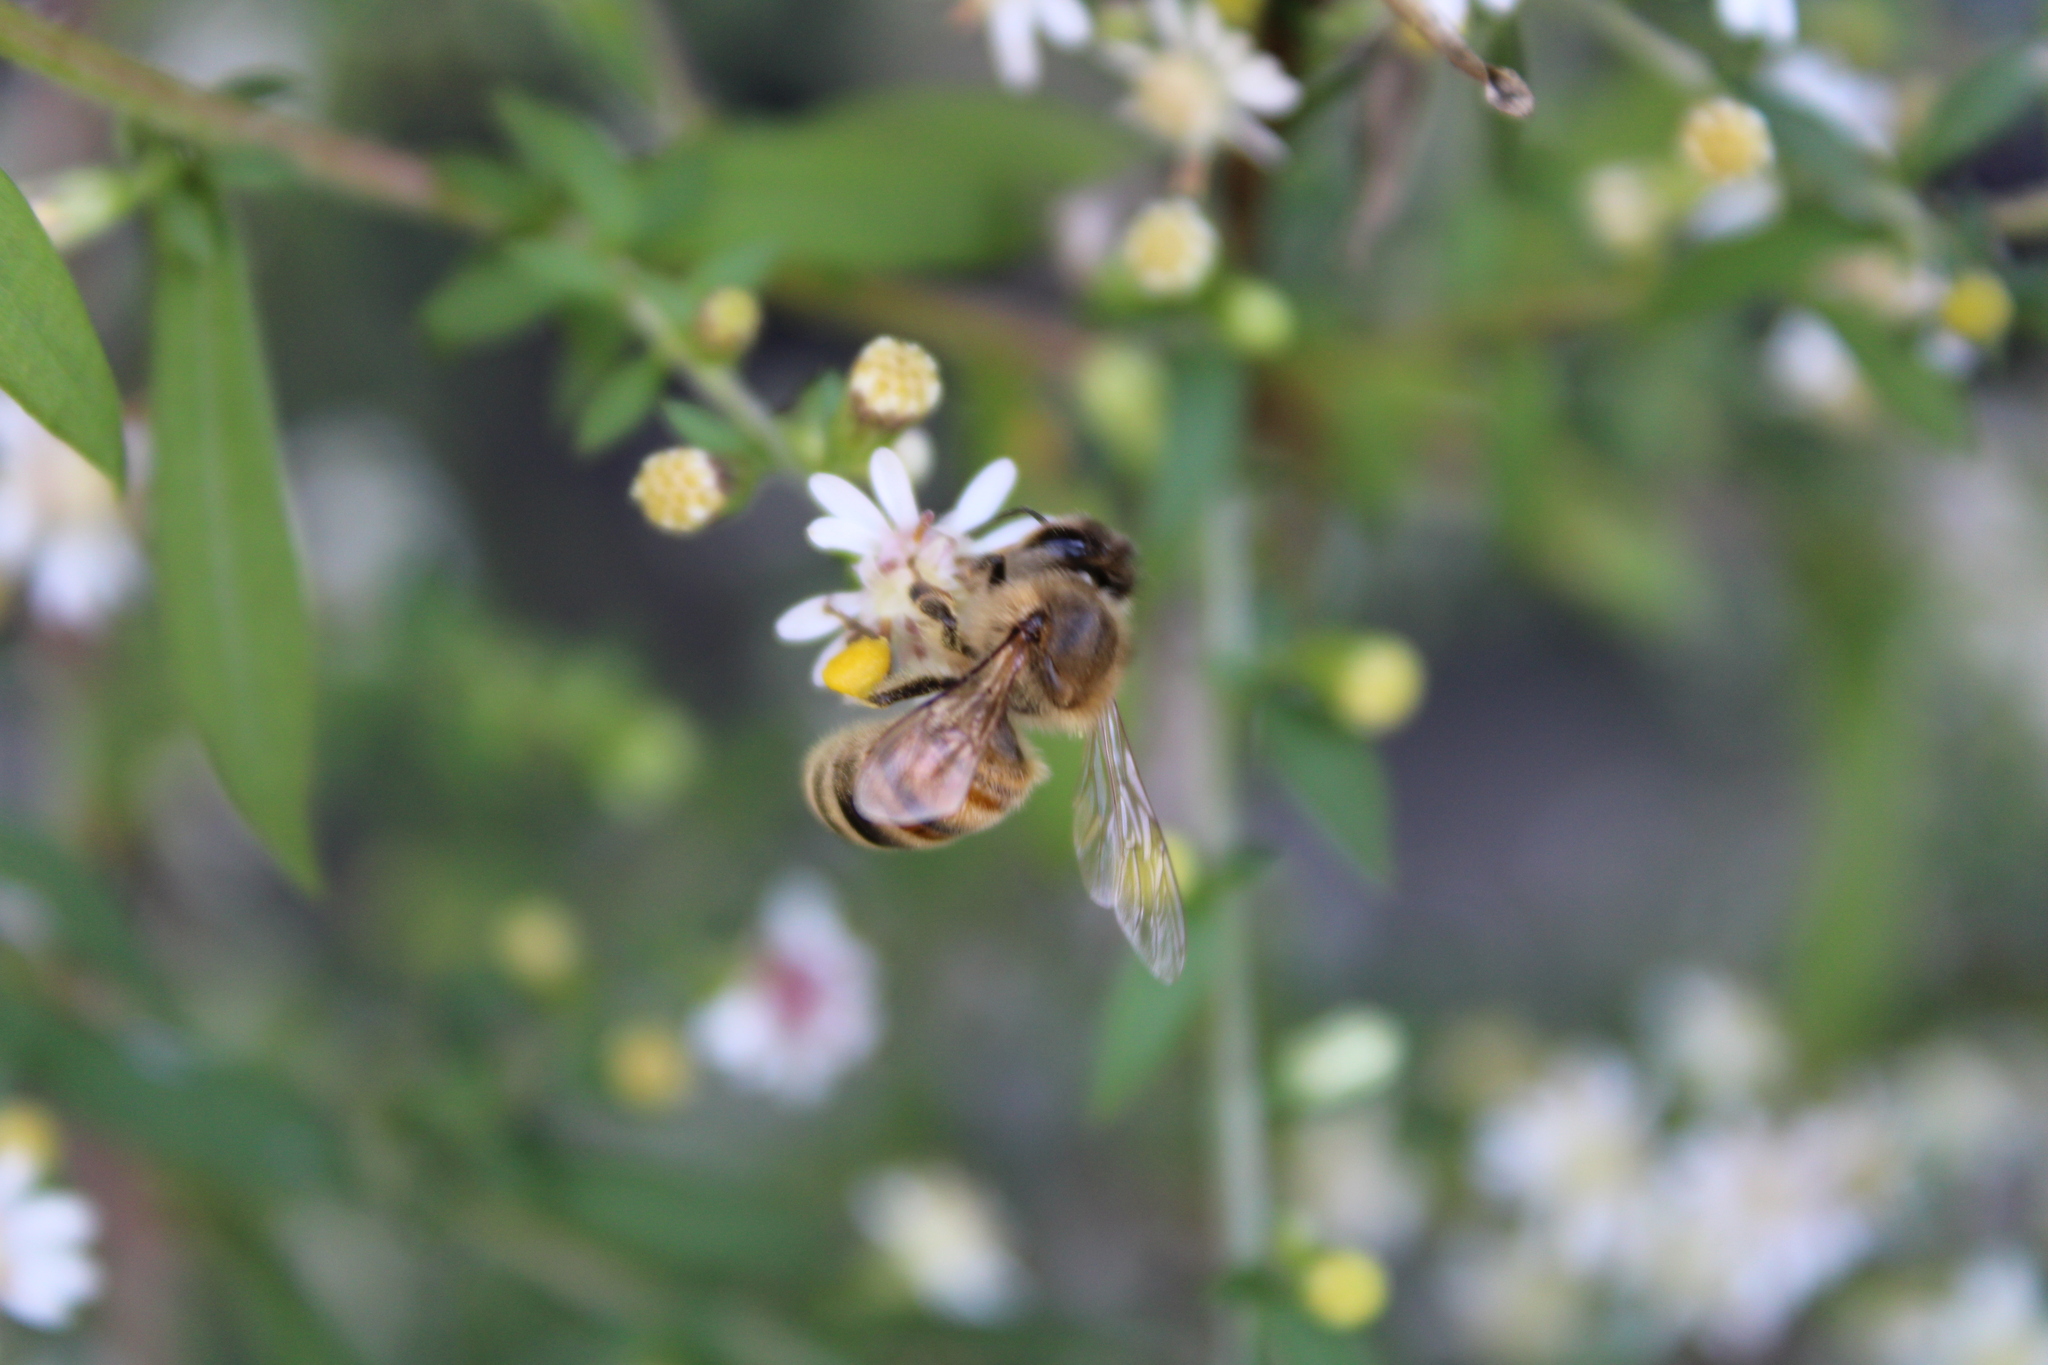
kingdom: Animalia
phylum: Arthropoda
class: Insecta
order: Hymenoptera
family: Apidae
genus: Apis
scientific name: Apis mellifera
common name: Honey bee
